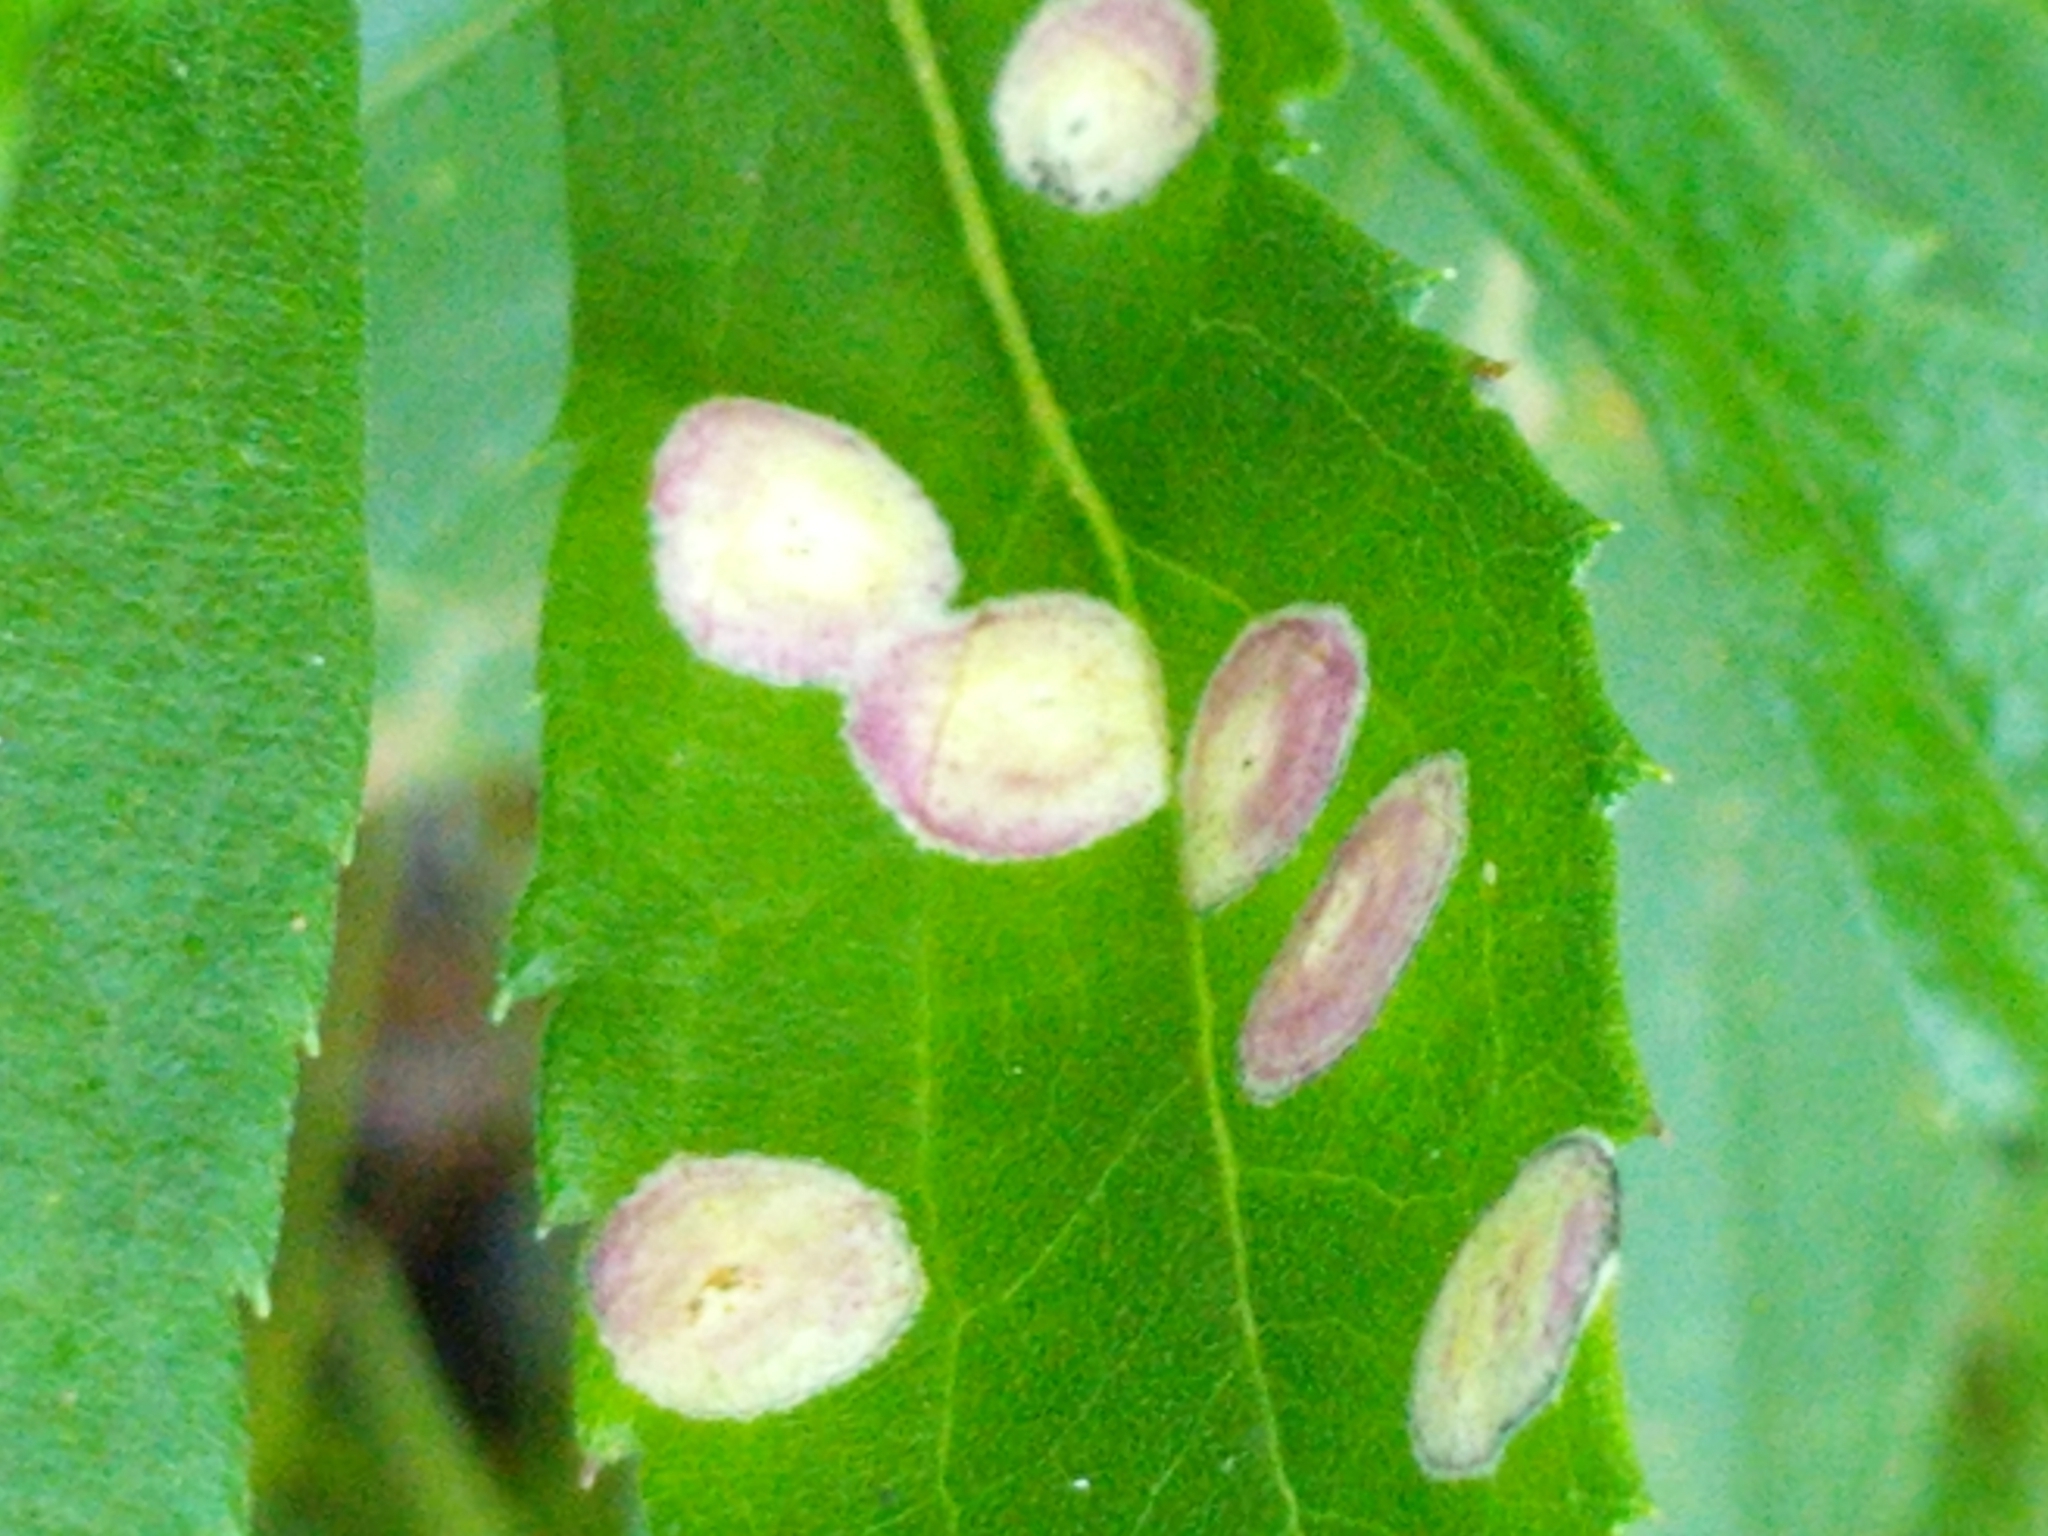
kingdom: Animalia
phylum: Arthropoda
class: Insecta
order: Diptera
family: Cecidomyiidae
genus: Asteromyia
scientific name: Asteromyia carbonifera
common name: Carbonifera goldenrod gall midge
